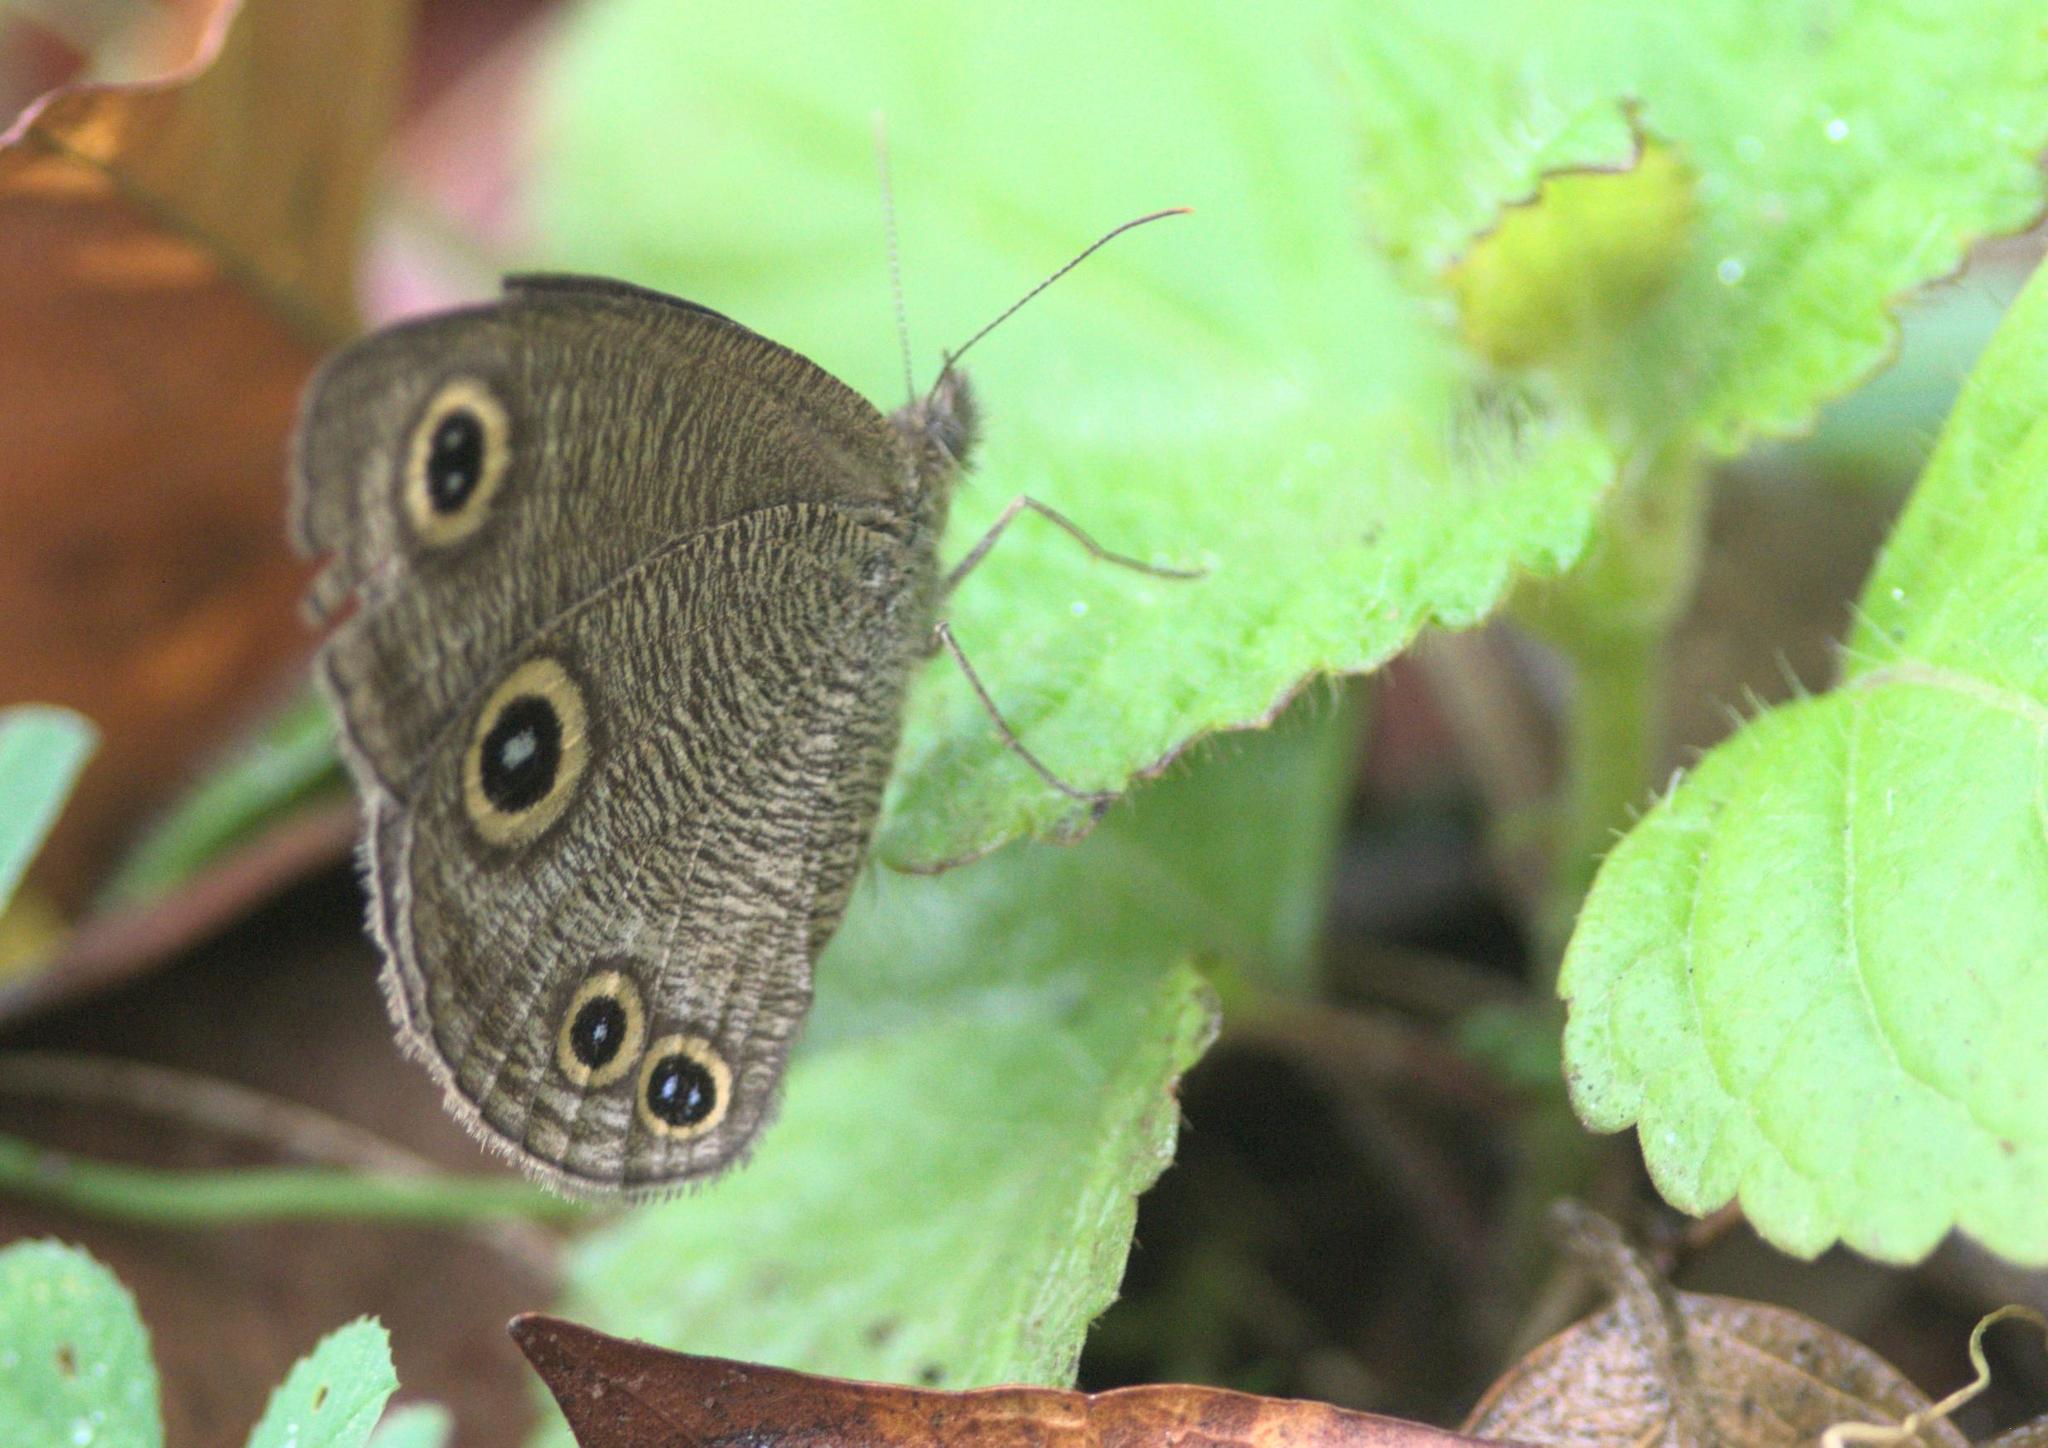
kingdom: Animalia
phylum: Arthropoda
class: Insecta
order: Lepidoptera
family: Nymphalidae
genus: Ypthima
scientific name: Ypthima nareda
